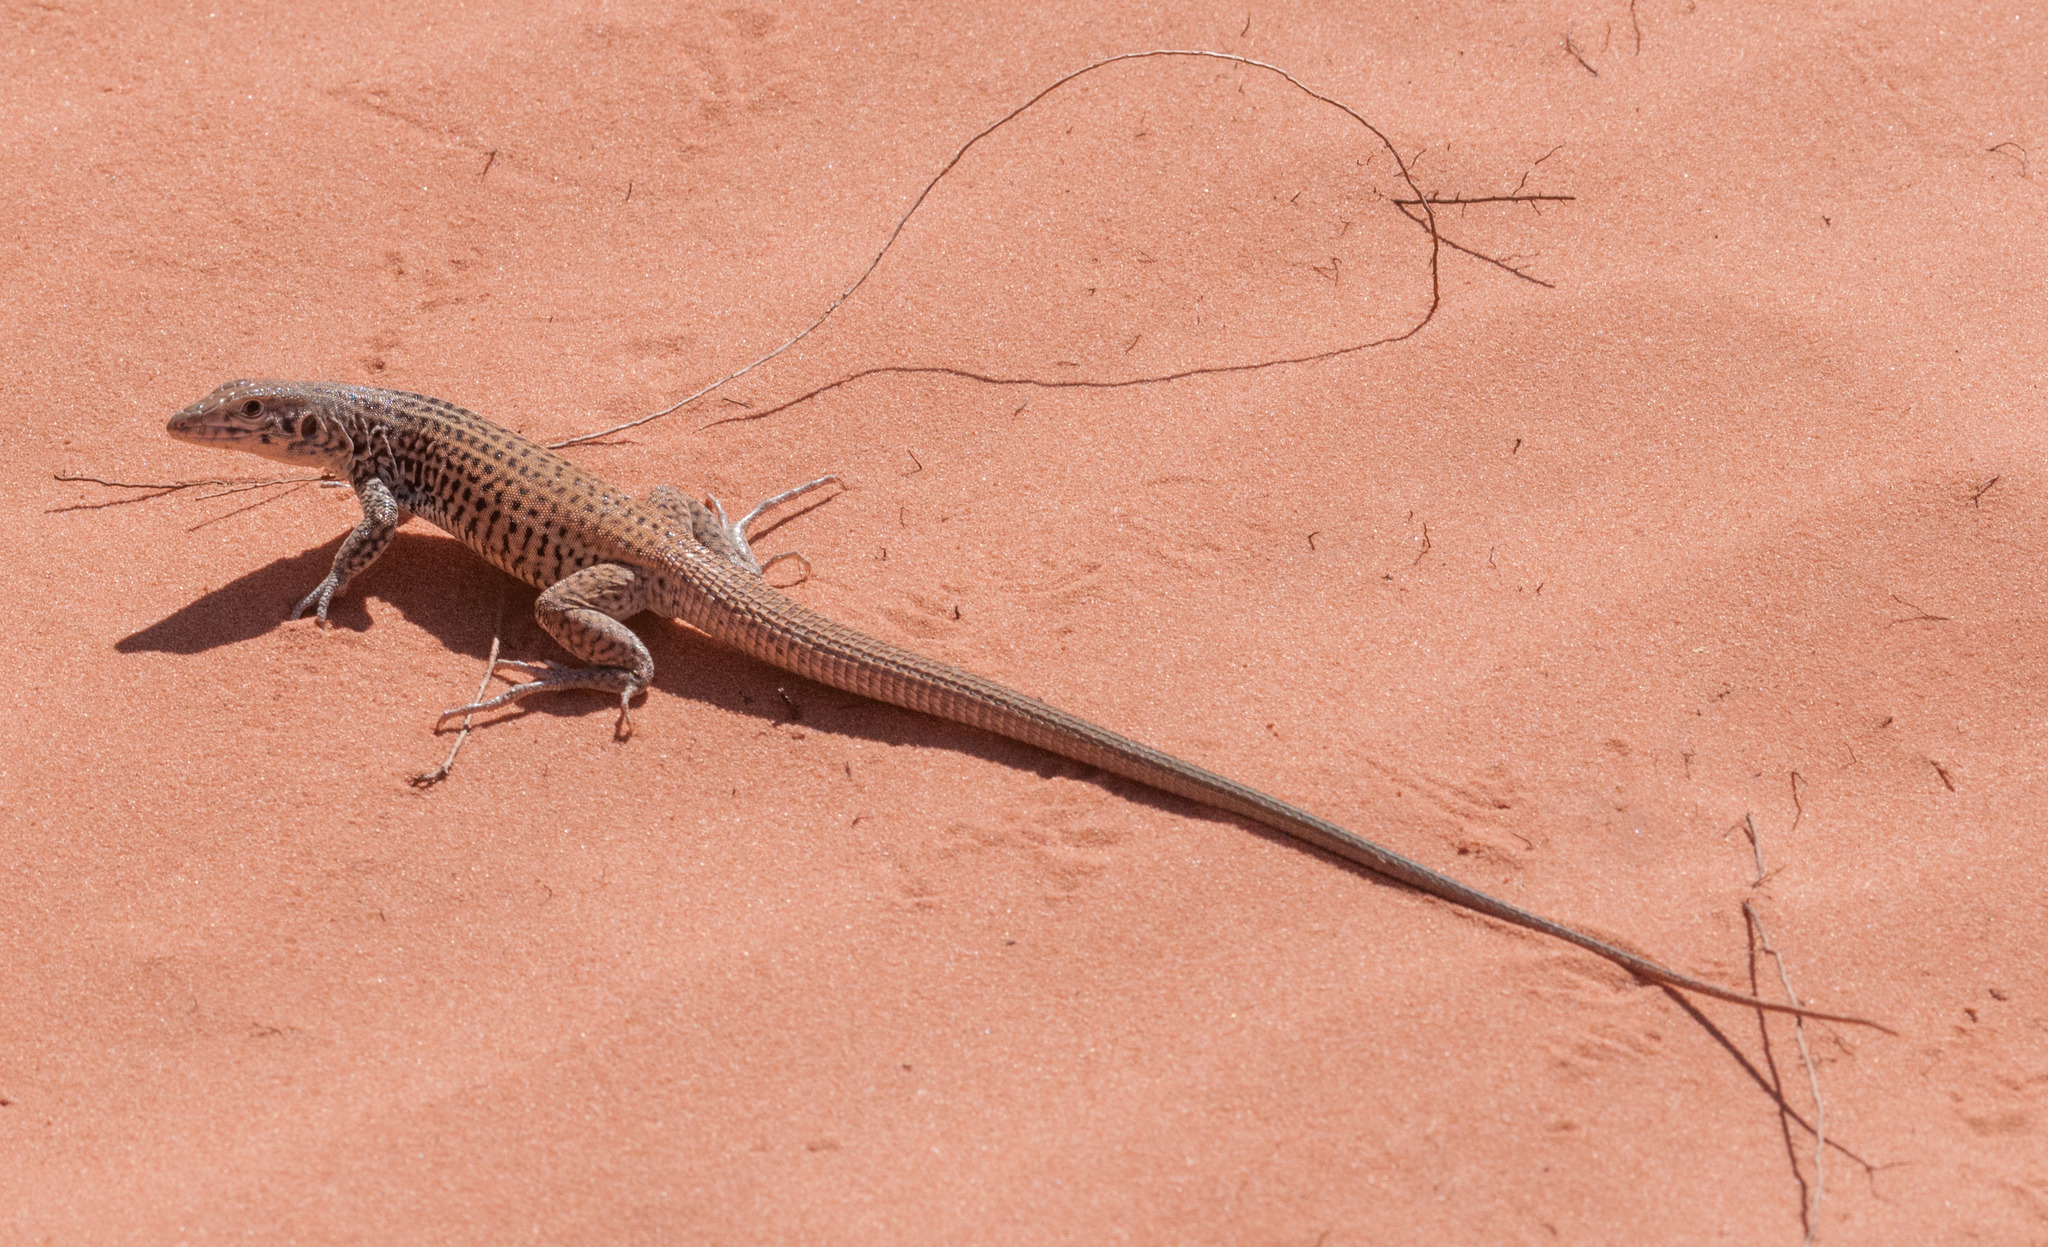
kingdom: Animalia
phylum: Chordata
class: Squamata
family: Teiidae
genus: Aspidoscelis
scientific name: Aspidoscelis tigris
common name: Tiger whiptail
